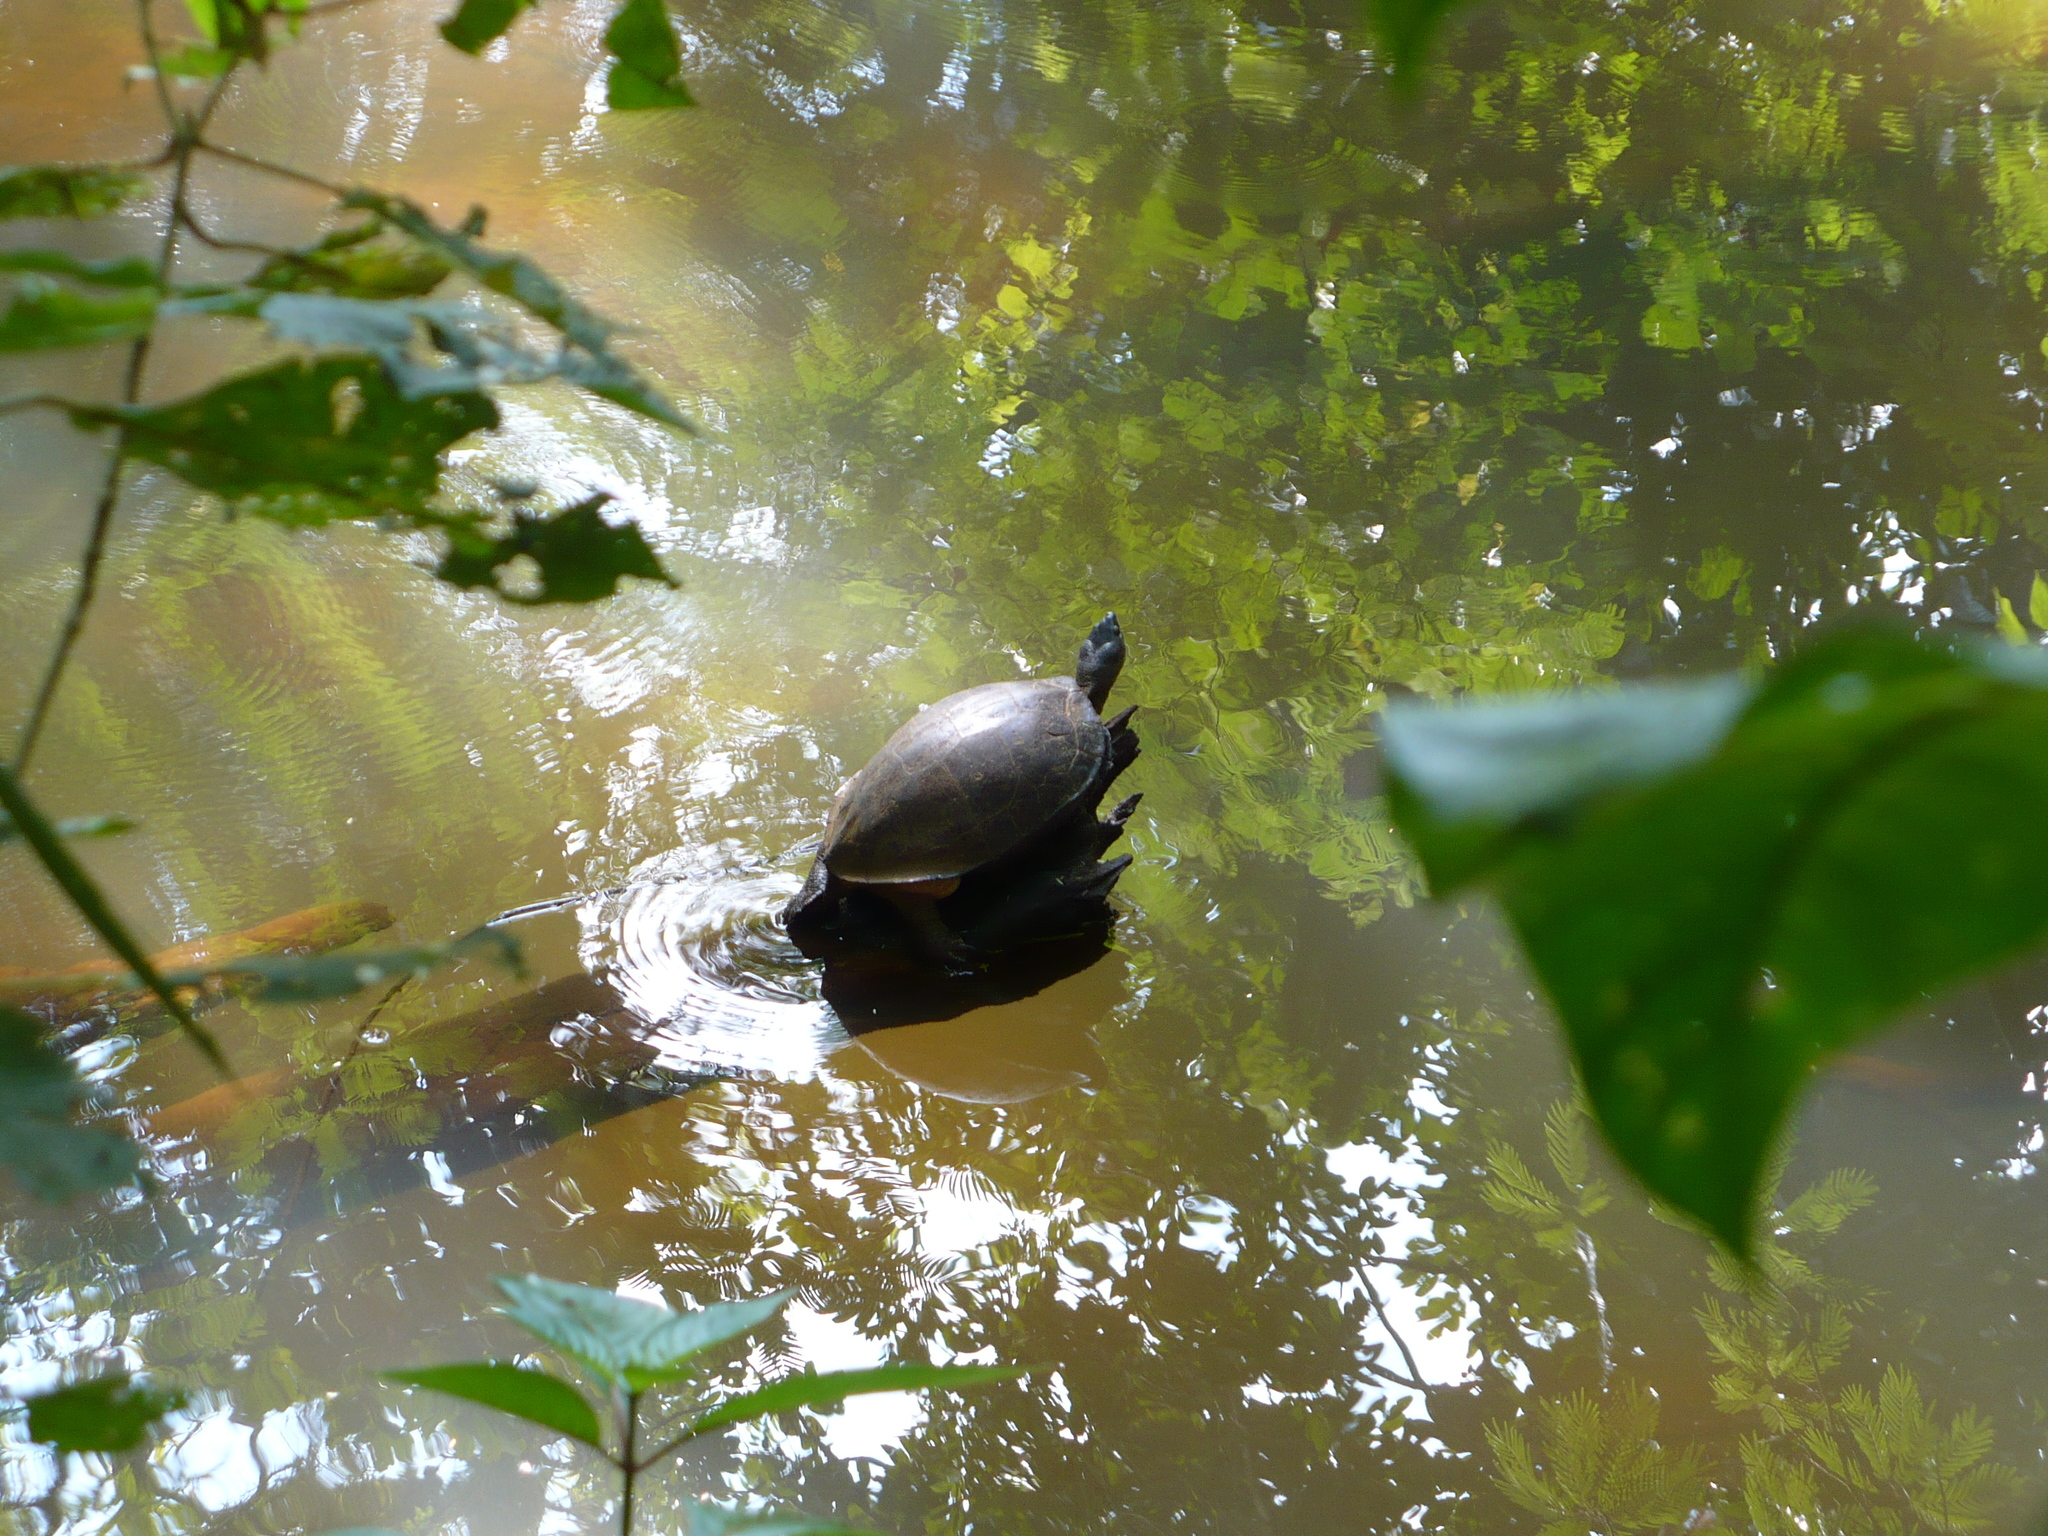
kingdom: Animalia
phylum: Chordata
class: Testudines
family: Geoemydidae
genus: Rhinoclemmys
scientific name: Rhinoclemmys funerea
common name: Black wood turtle
